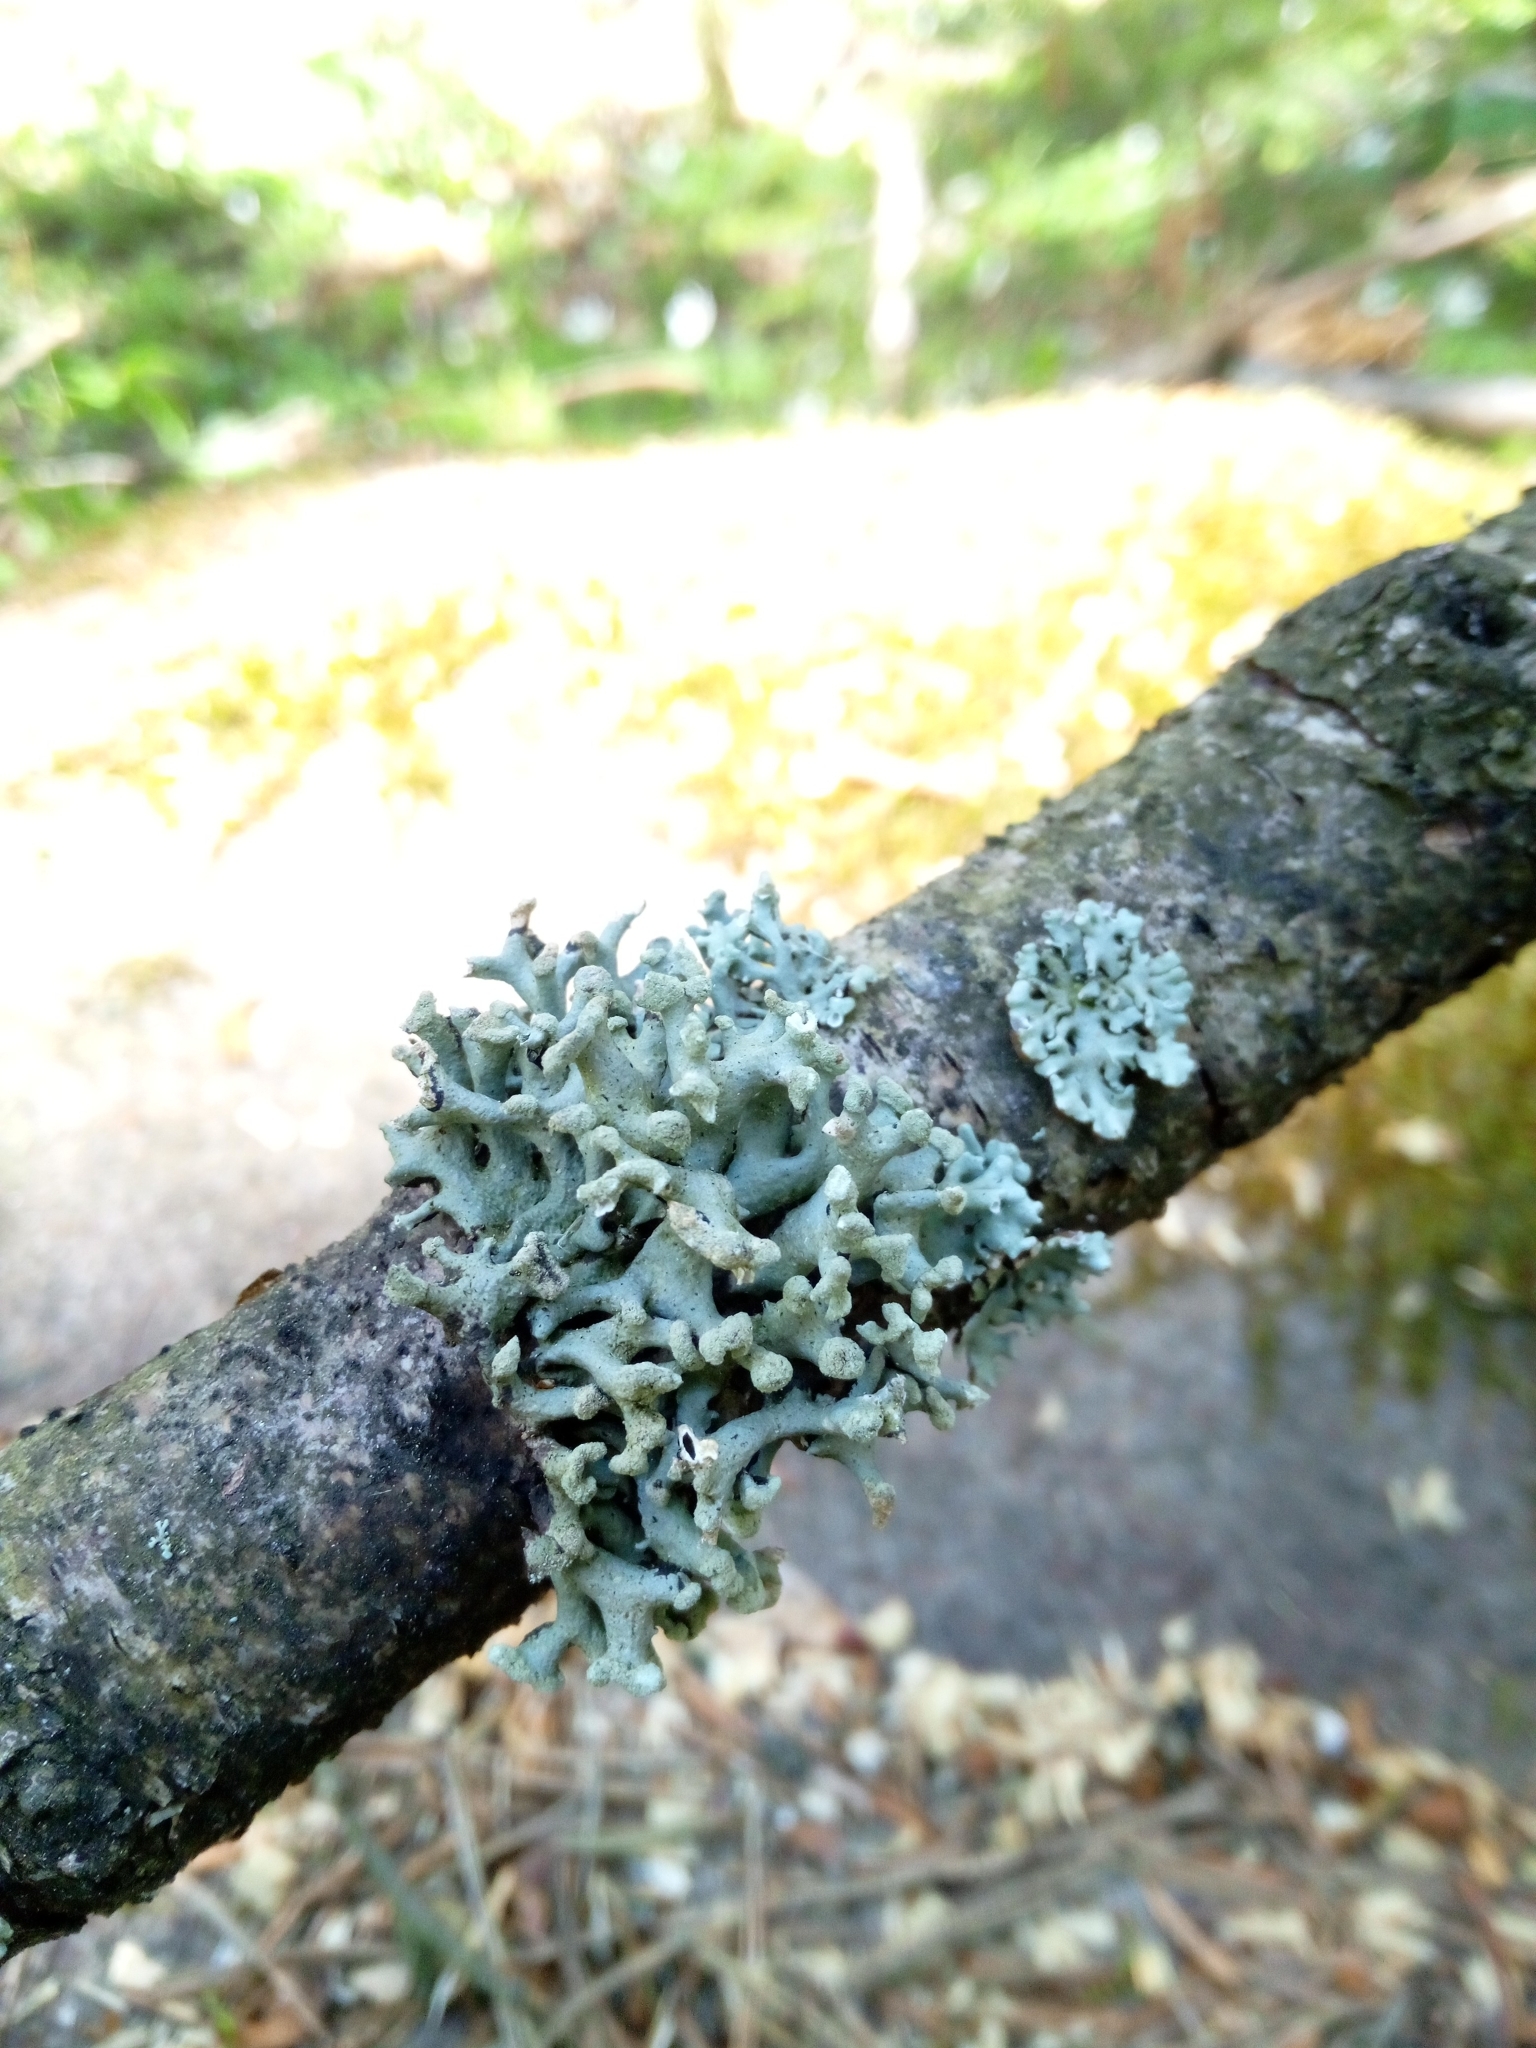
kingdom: Fungi
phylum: Ascomycota
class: Lecanoromycetes
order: Lecanorales
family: Parmeliaceae
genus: Hypogymnia
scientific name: Hypogymnia tubulosa
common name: Powder-headed tube lichen
